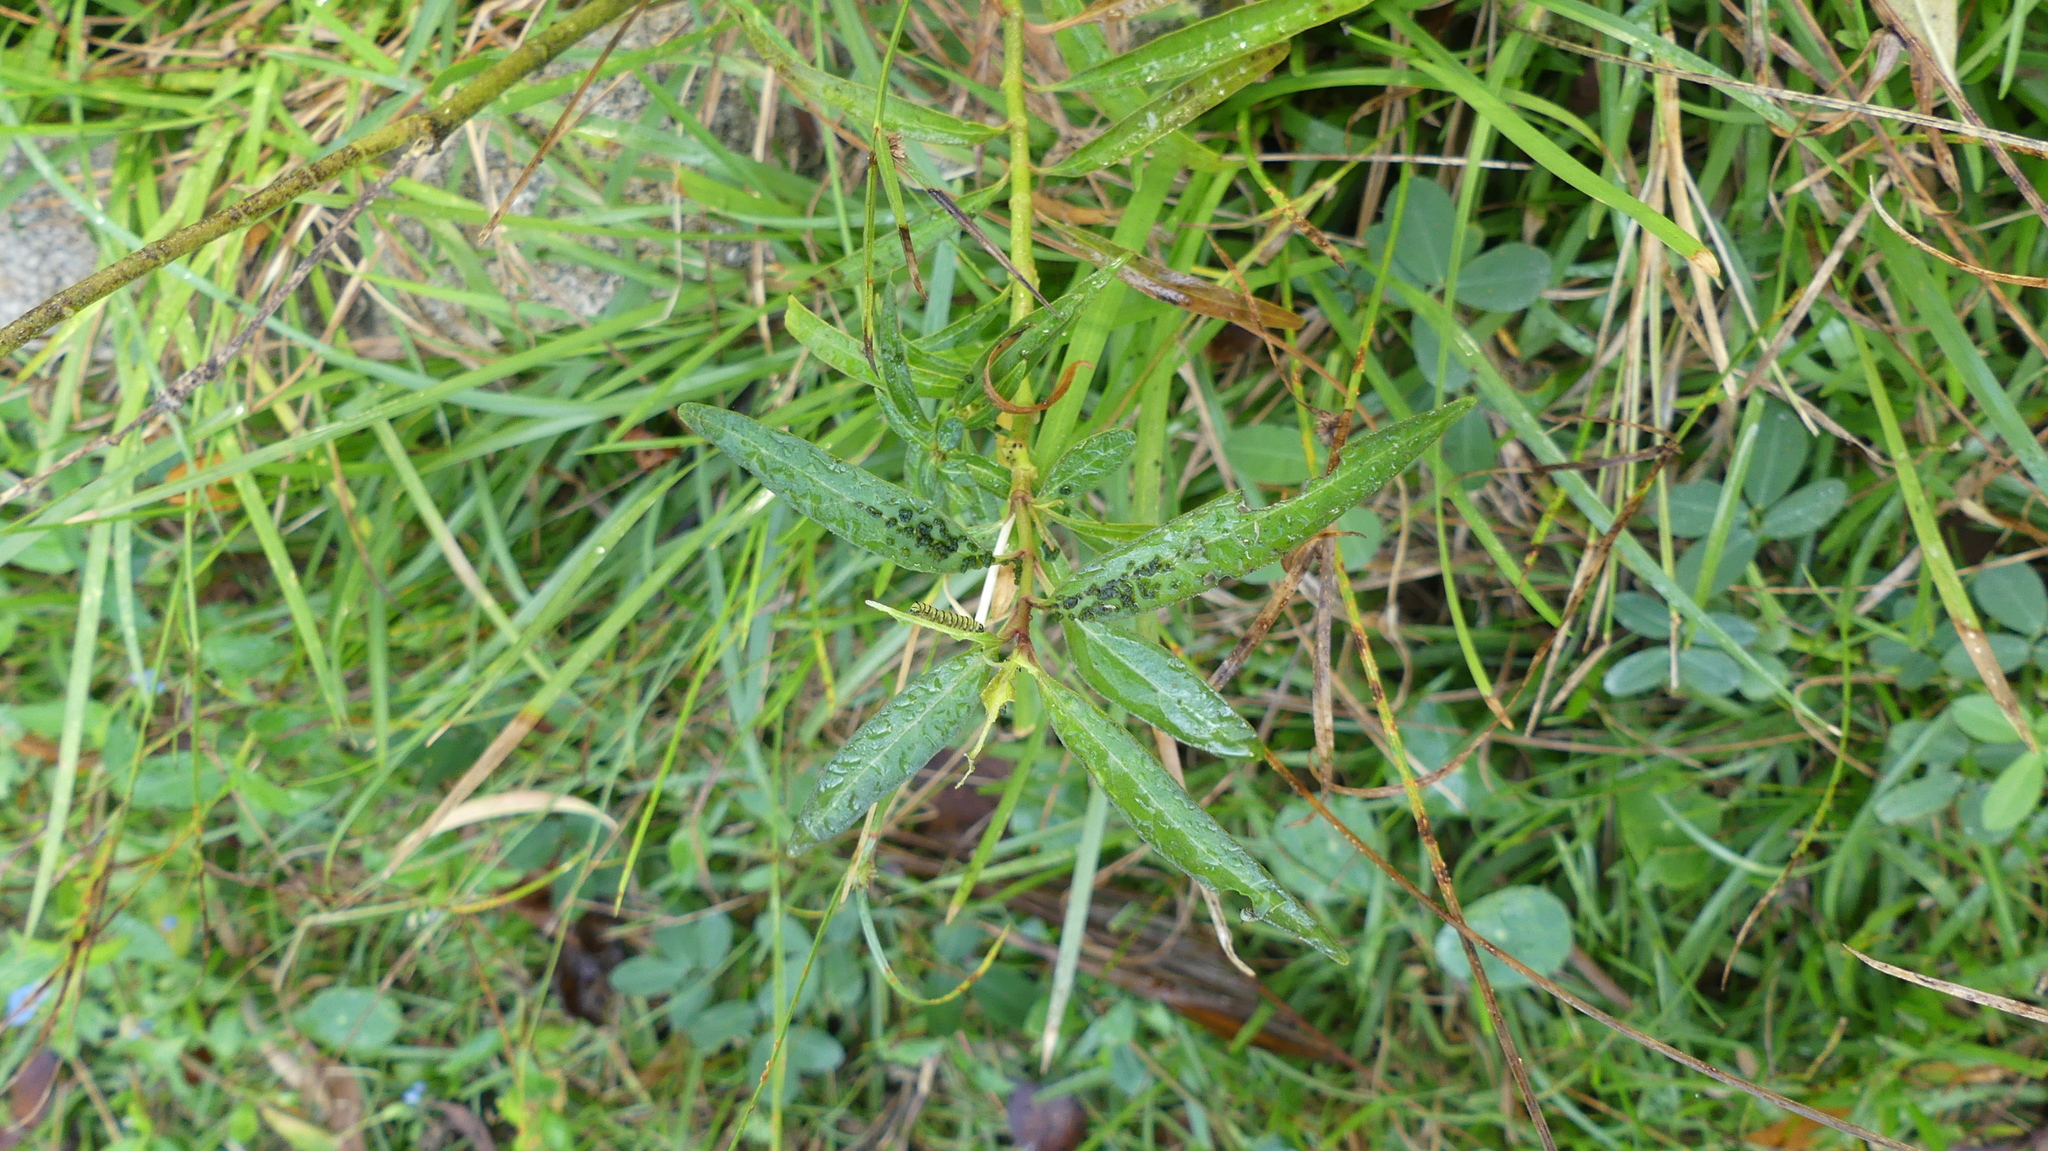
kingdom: Animalia
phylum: Arthropoda
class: Insecta
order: Lepidoptera
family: Nymphalidae
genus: Danaus
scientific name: Danaus plexippus
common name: Monarch
